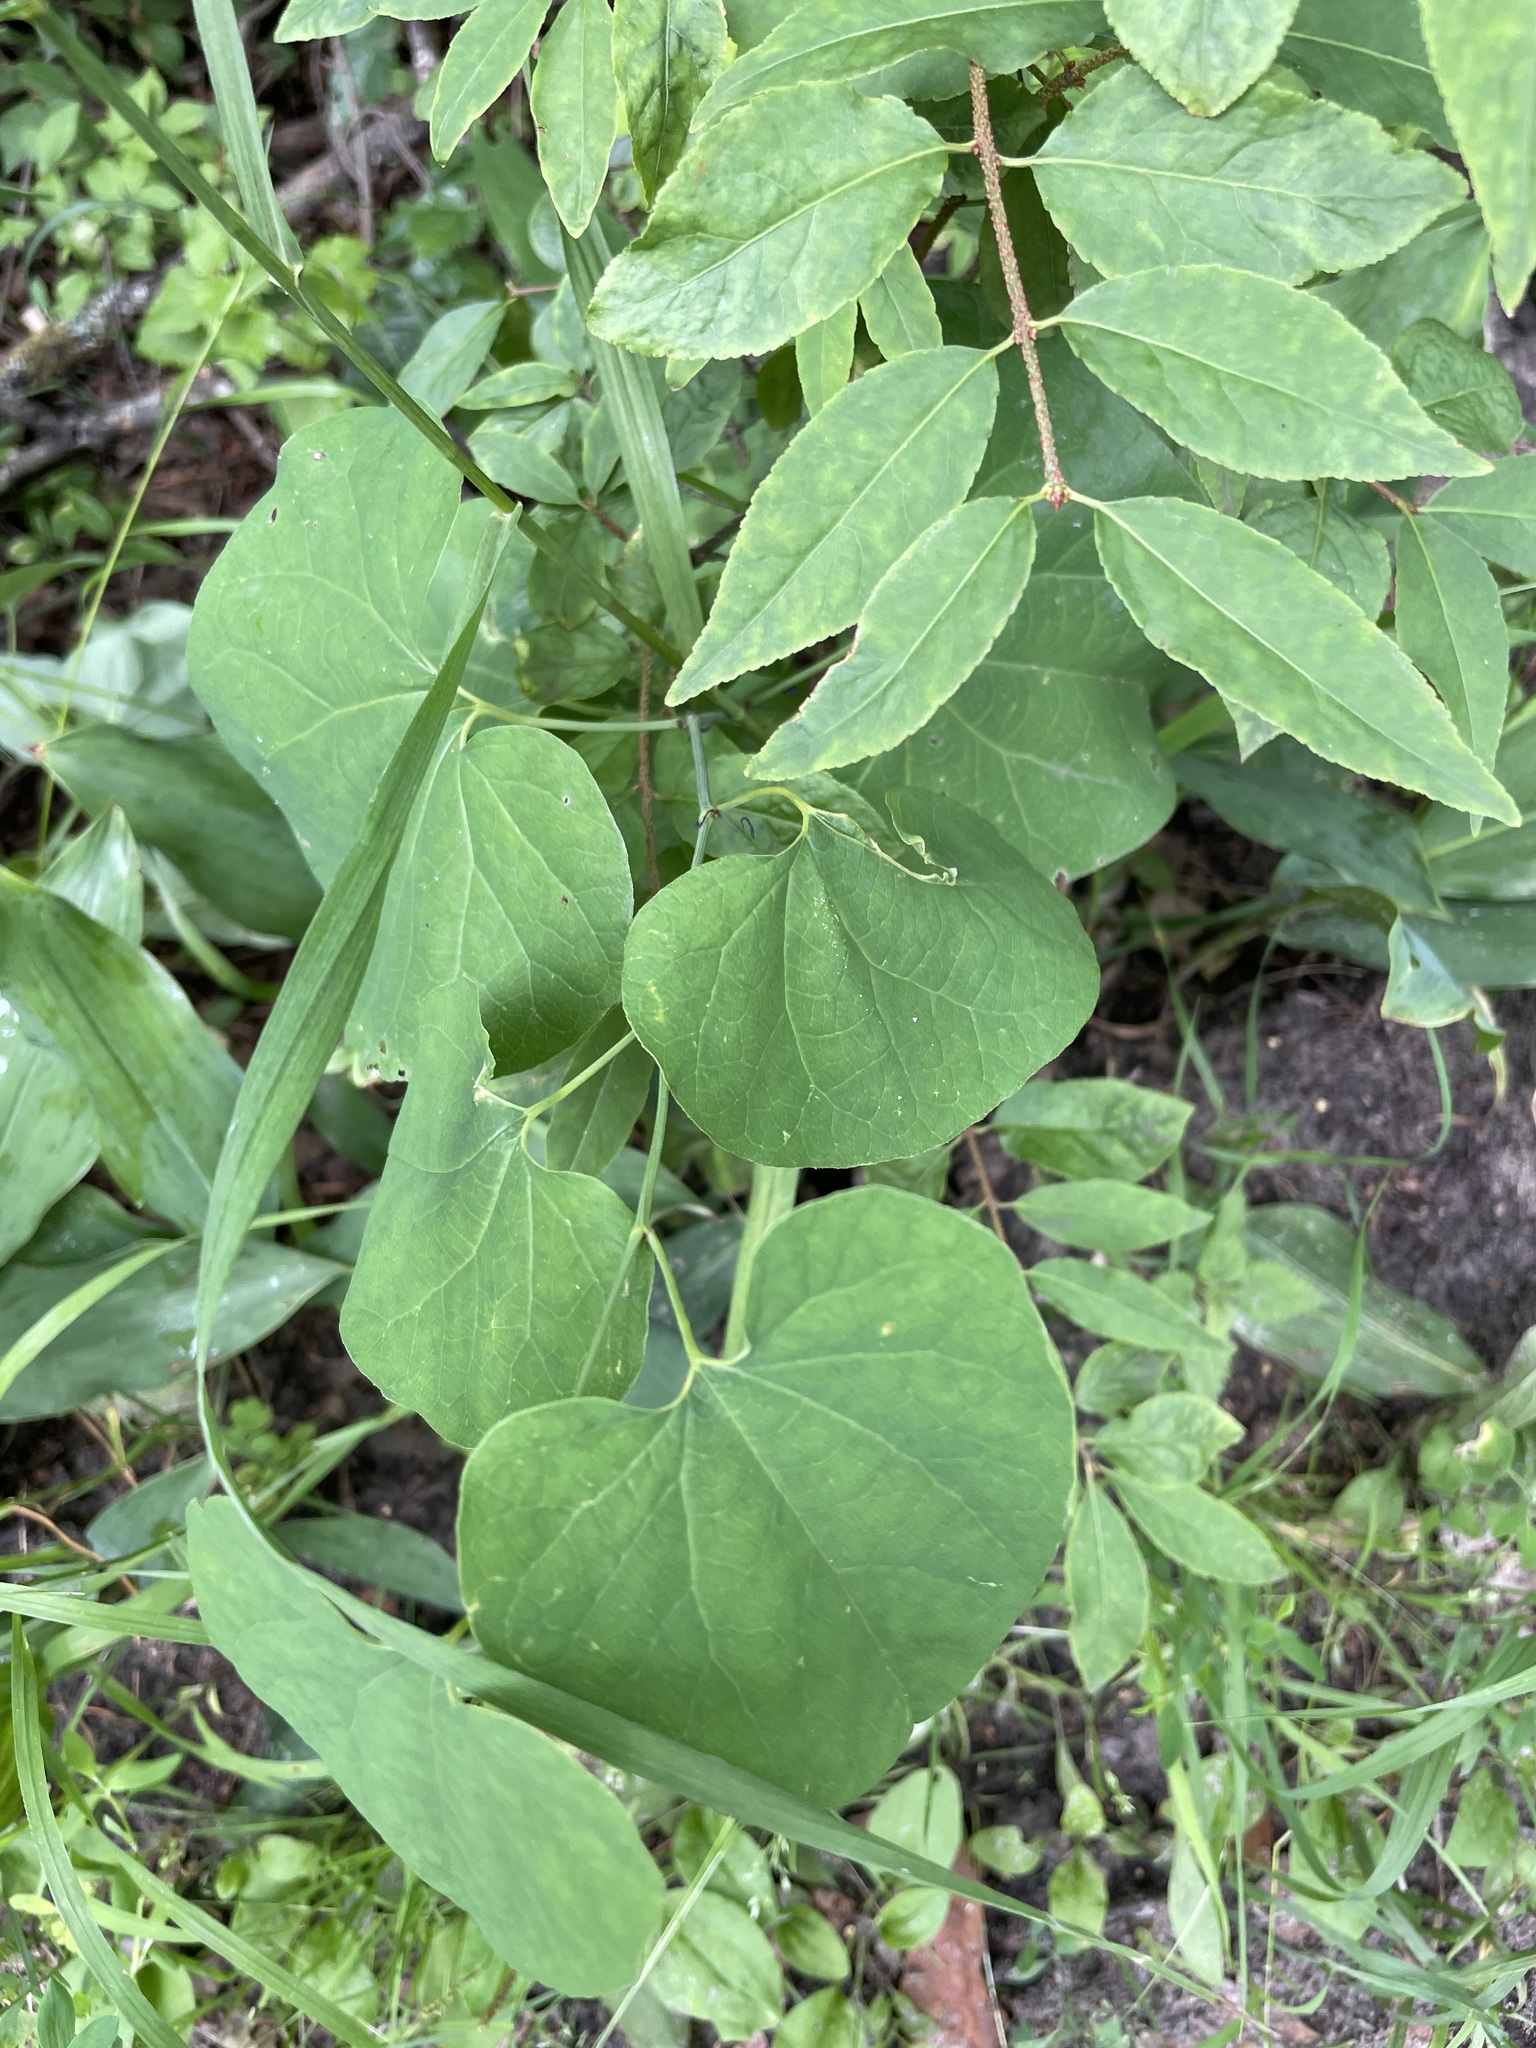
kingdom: Plantae
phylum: Tracheophyta
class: Magnoliopsida
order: Piperales
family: Aristolochiaceae
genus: Aristolochia
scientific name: Aristolochia clematitis
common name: Birthwort
